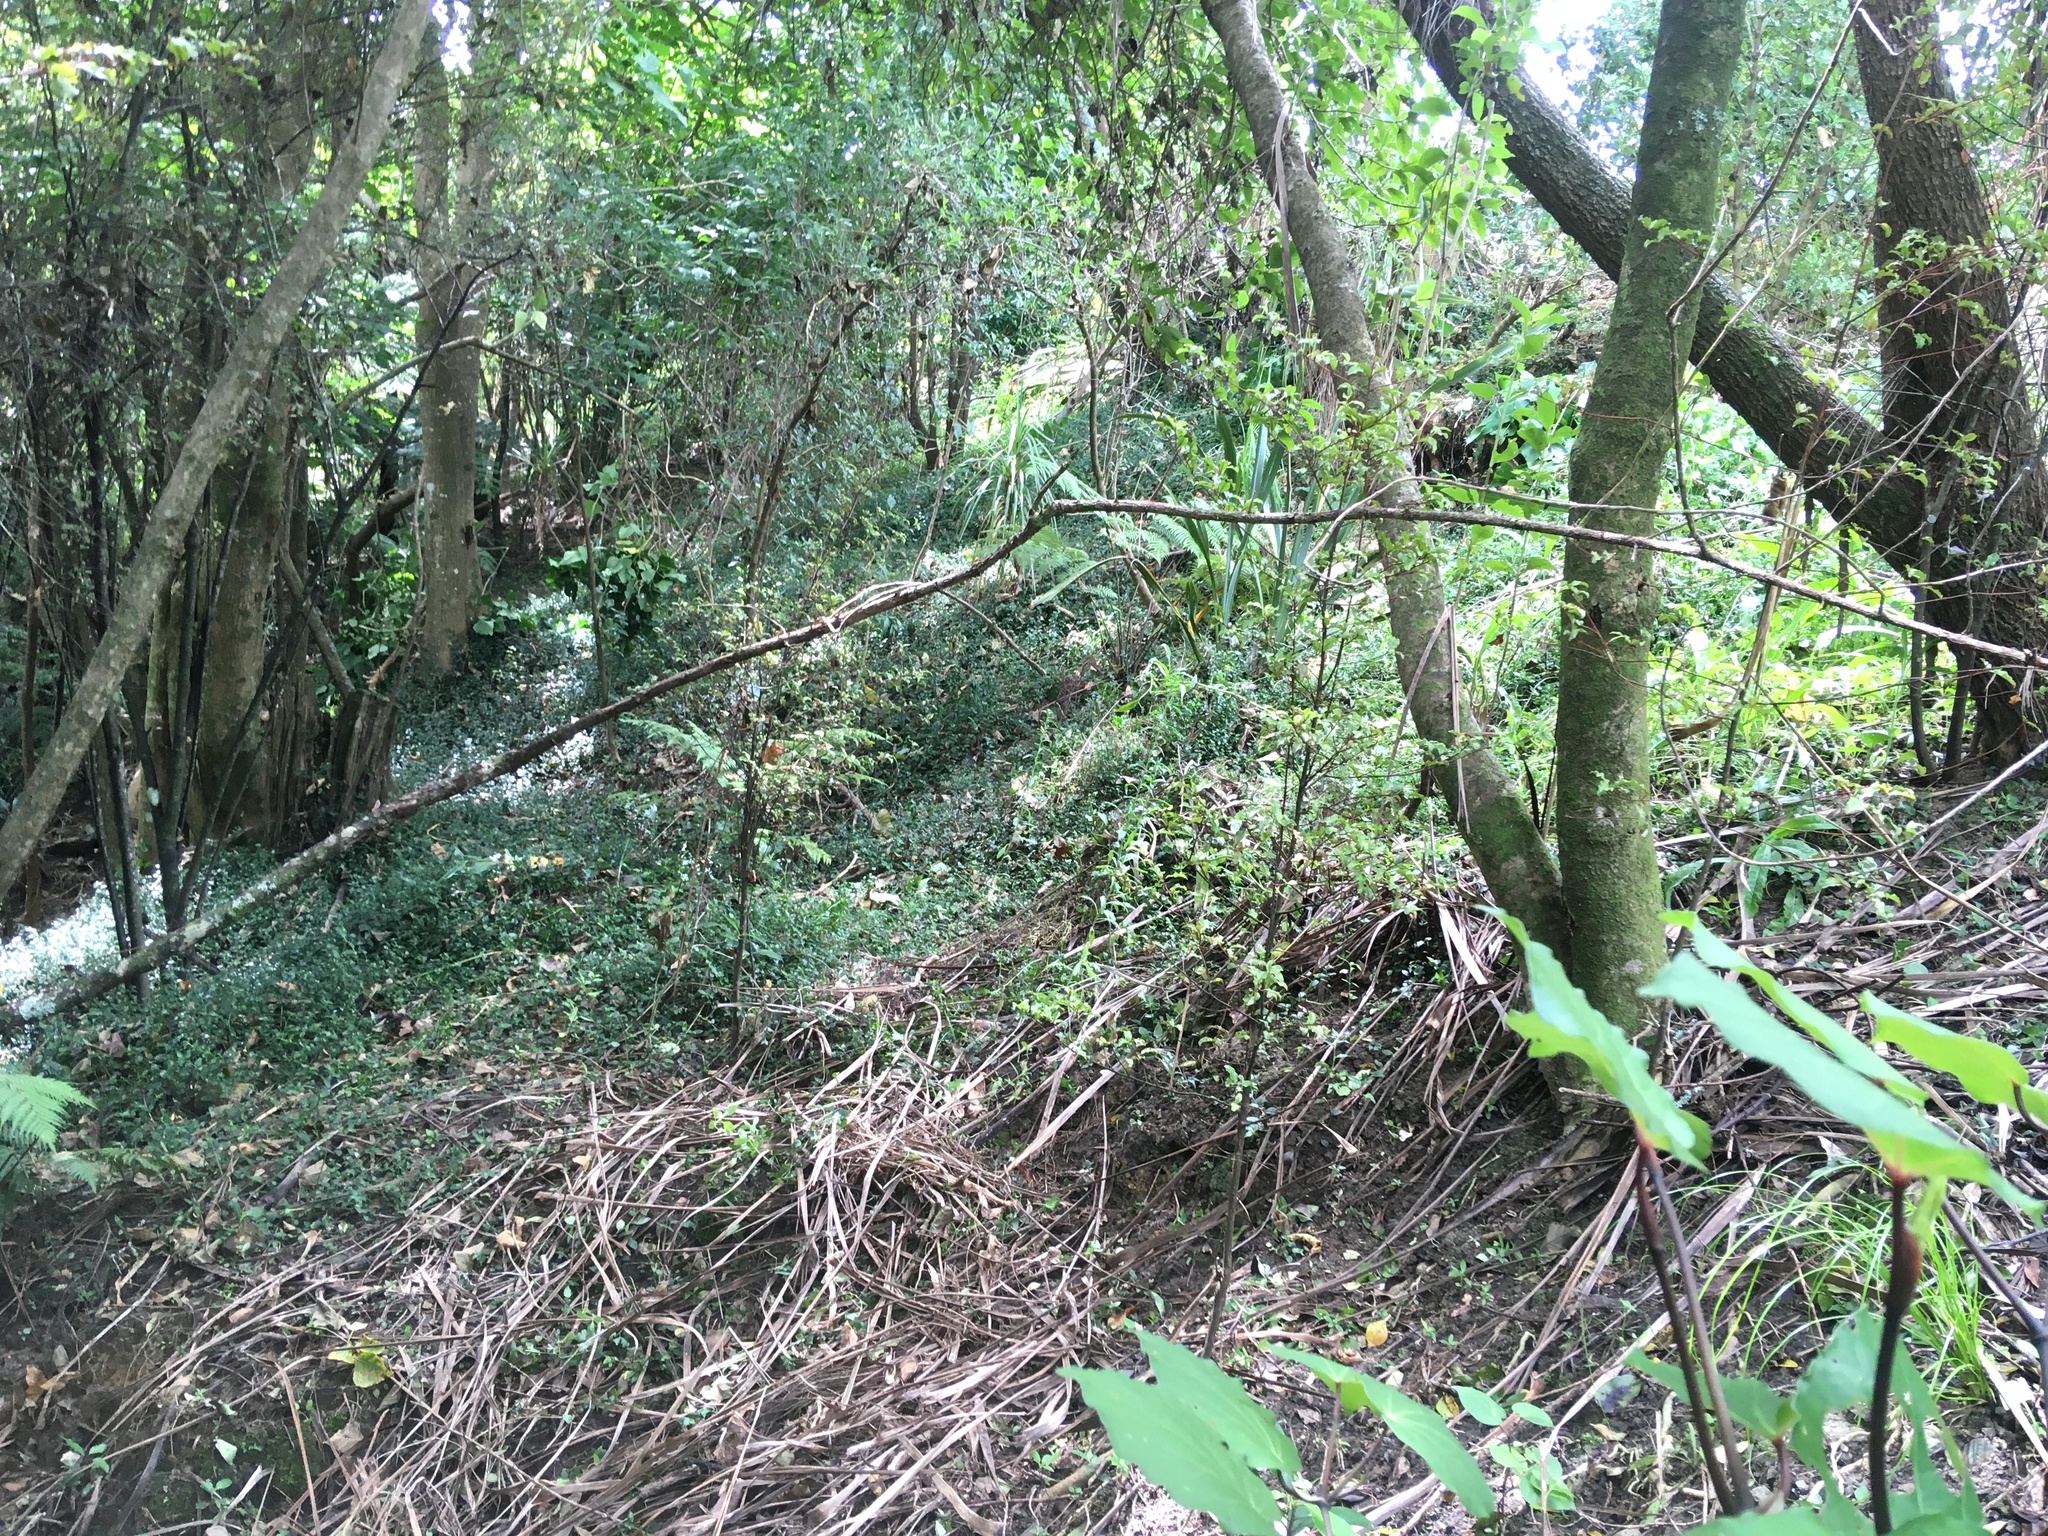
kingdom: Plantae
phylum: Tracheophyta
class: Magnoliopsida
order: Ericales
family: Primulaceae
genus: Myrsine
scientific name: Myrsine australis
